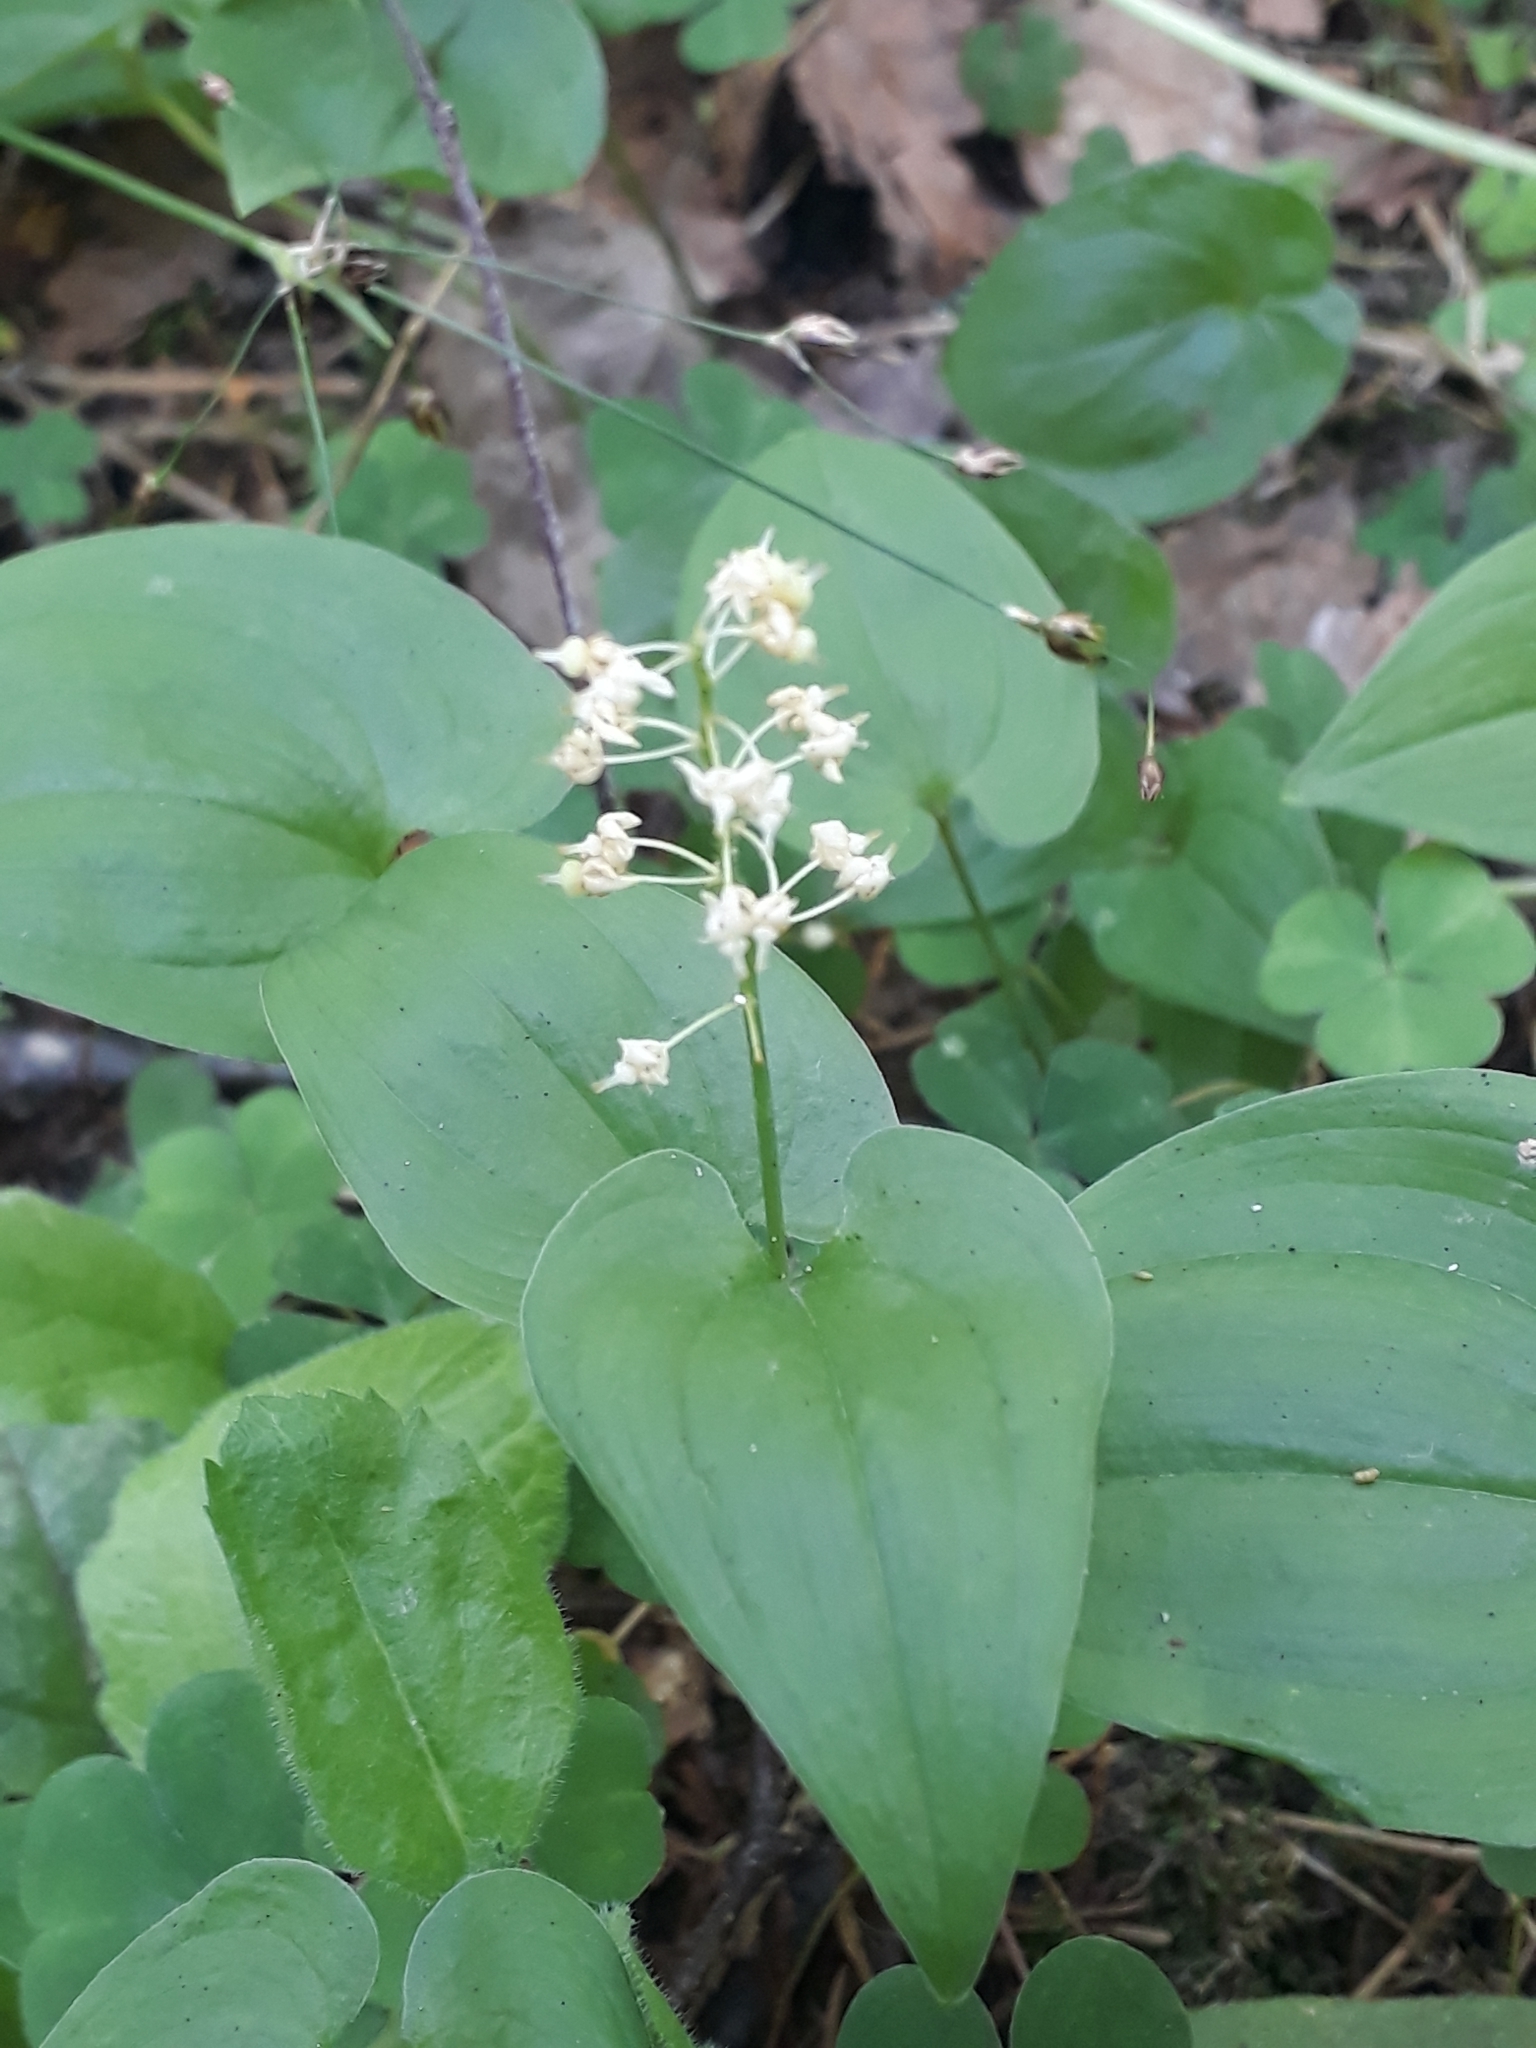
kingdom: Plantae
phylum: Tracheophyta
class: Liliopsida
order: Asparagales
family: Asparagaceae
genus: Maianthemum
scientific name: Maianthemum bifolium
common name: May lily
